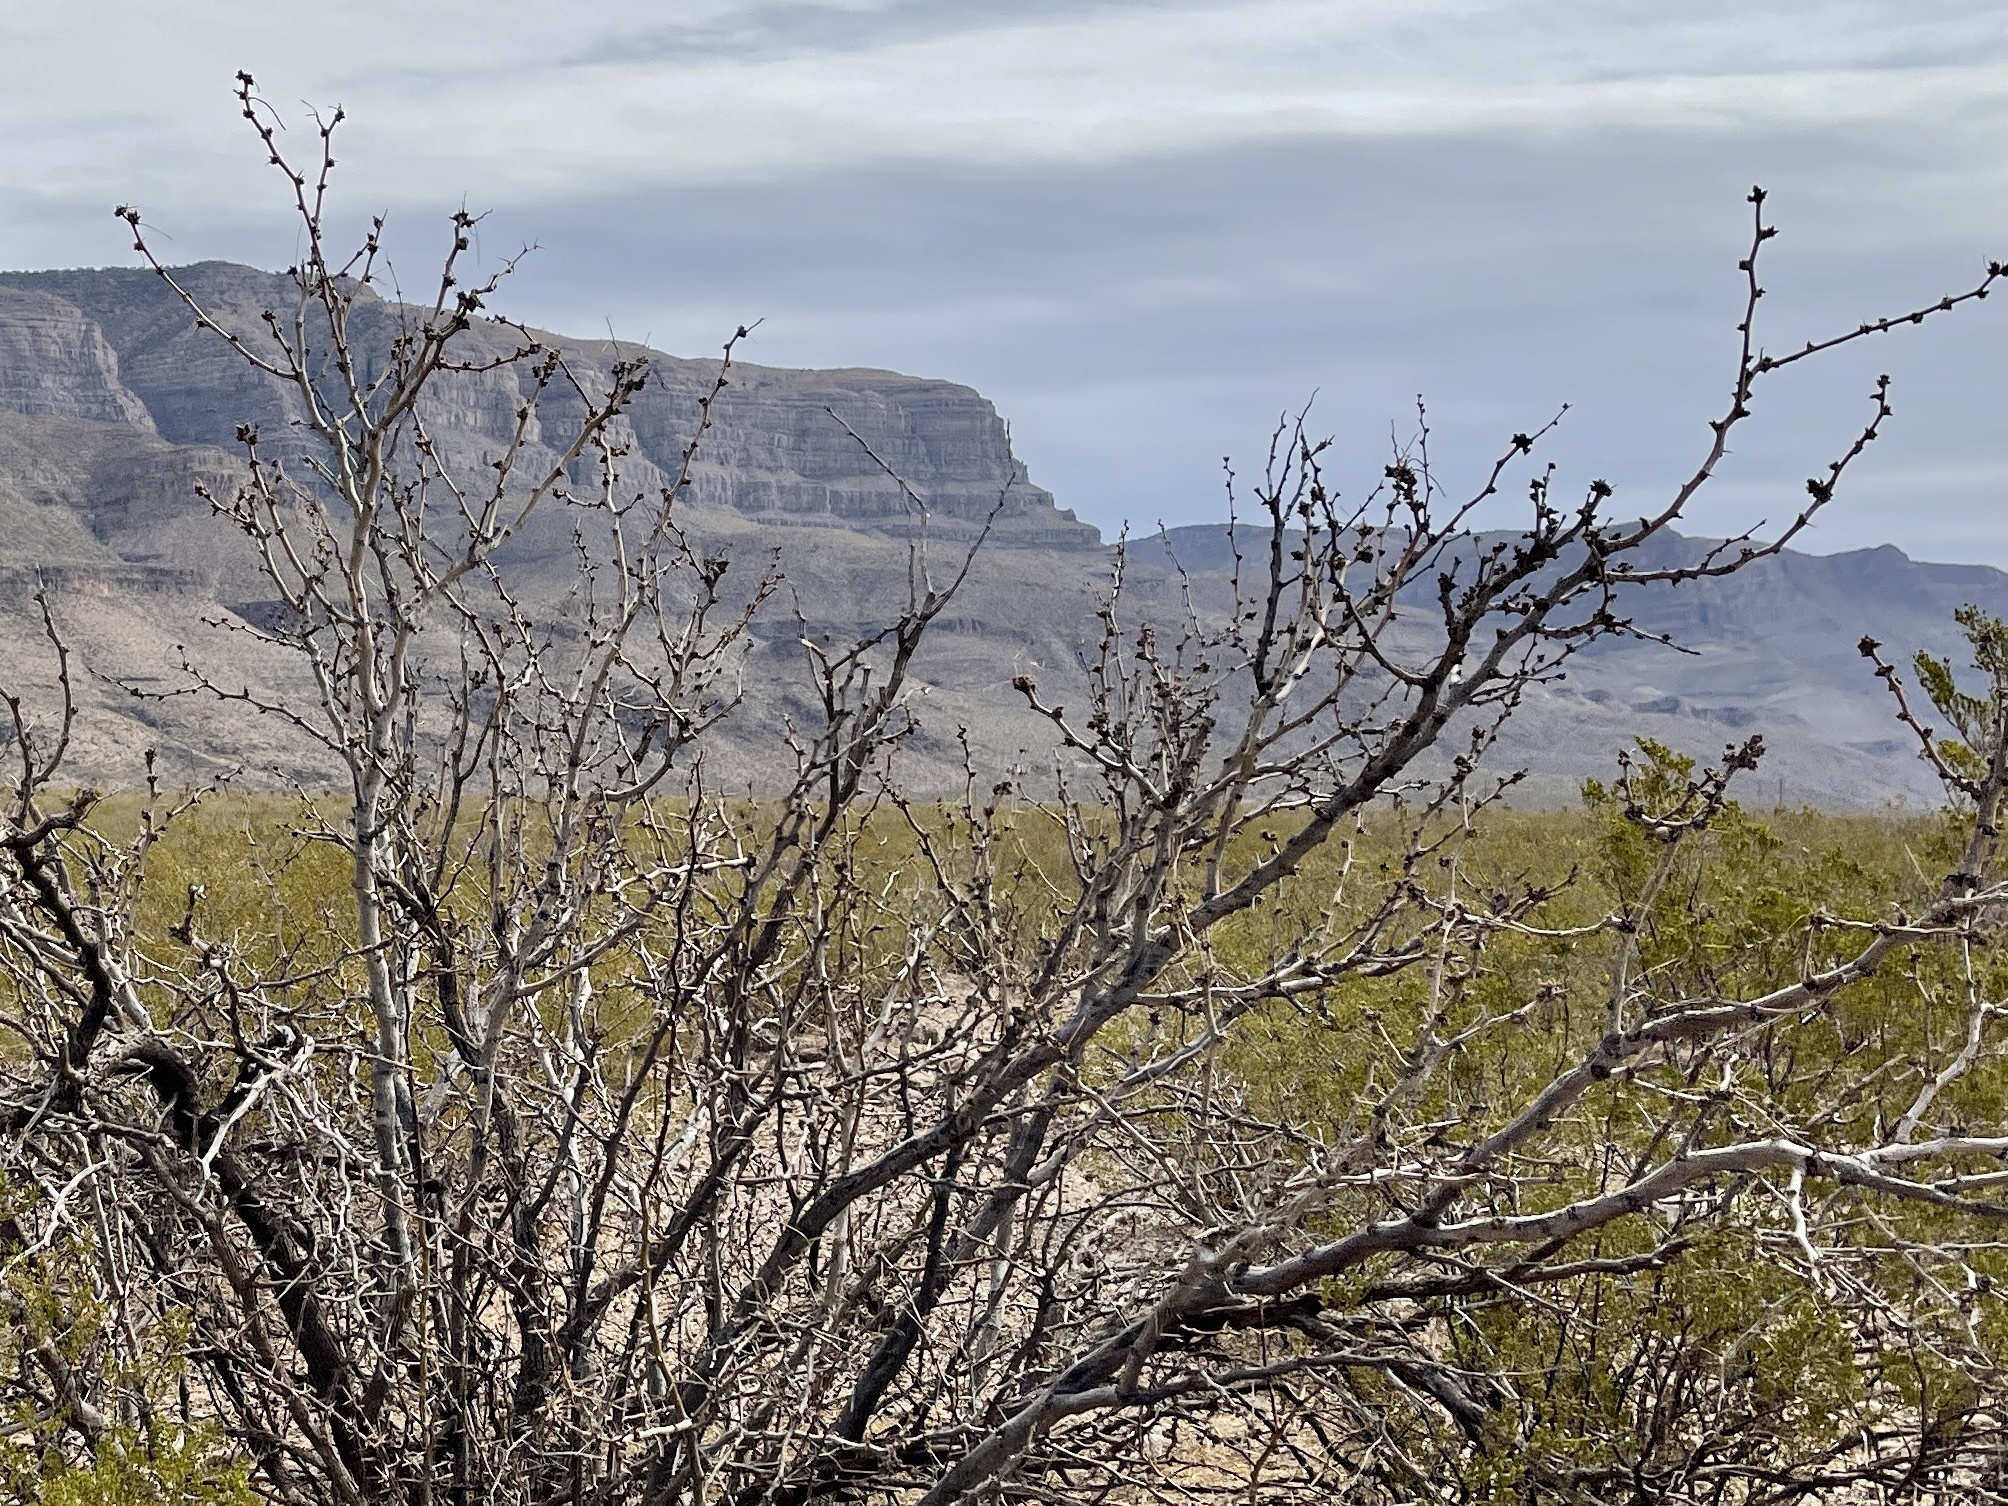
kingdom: Plantae
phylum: Tracheophyta
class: Magnoliopsida
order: Fabales
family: Fabaceae
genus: Prosopis
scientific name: Prosopis glandulosa
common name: Honey mesquite
